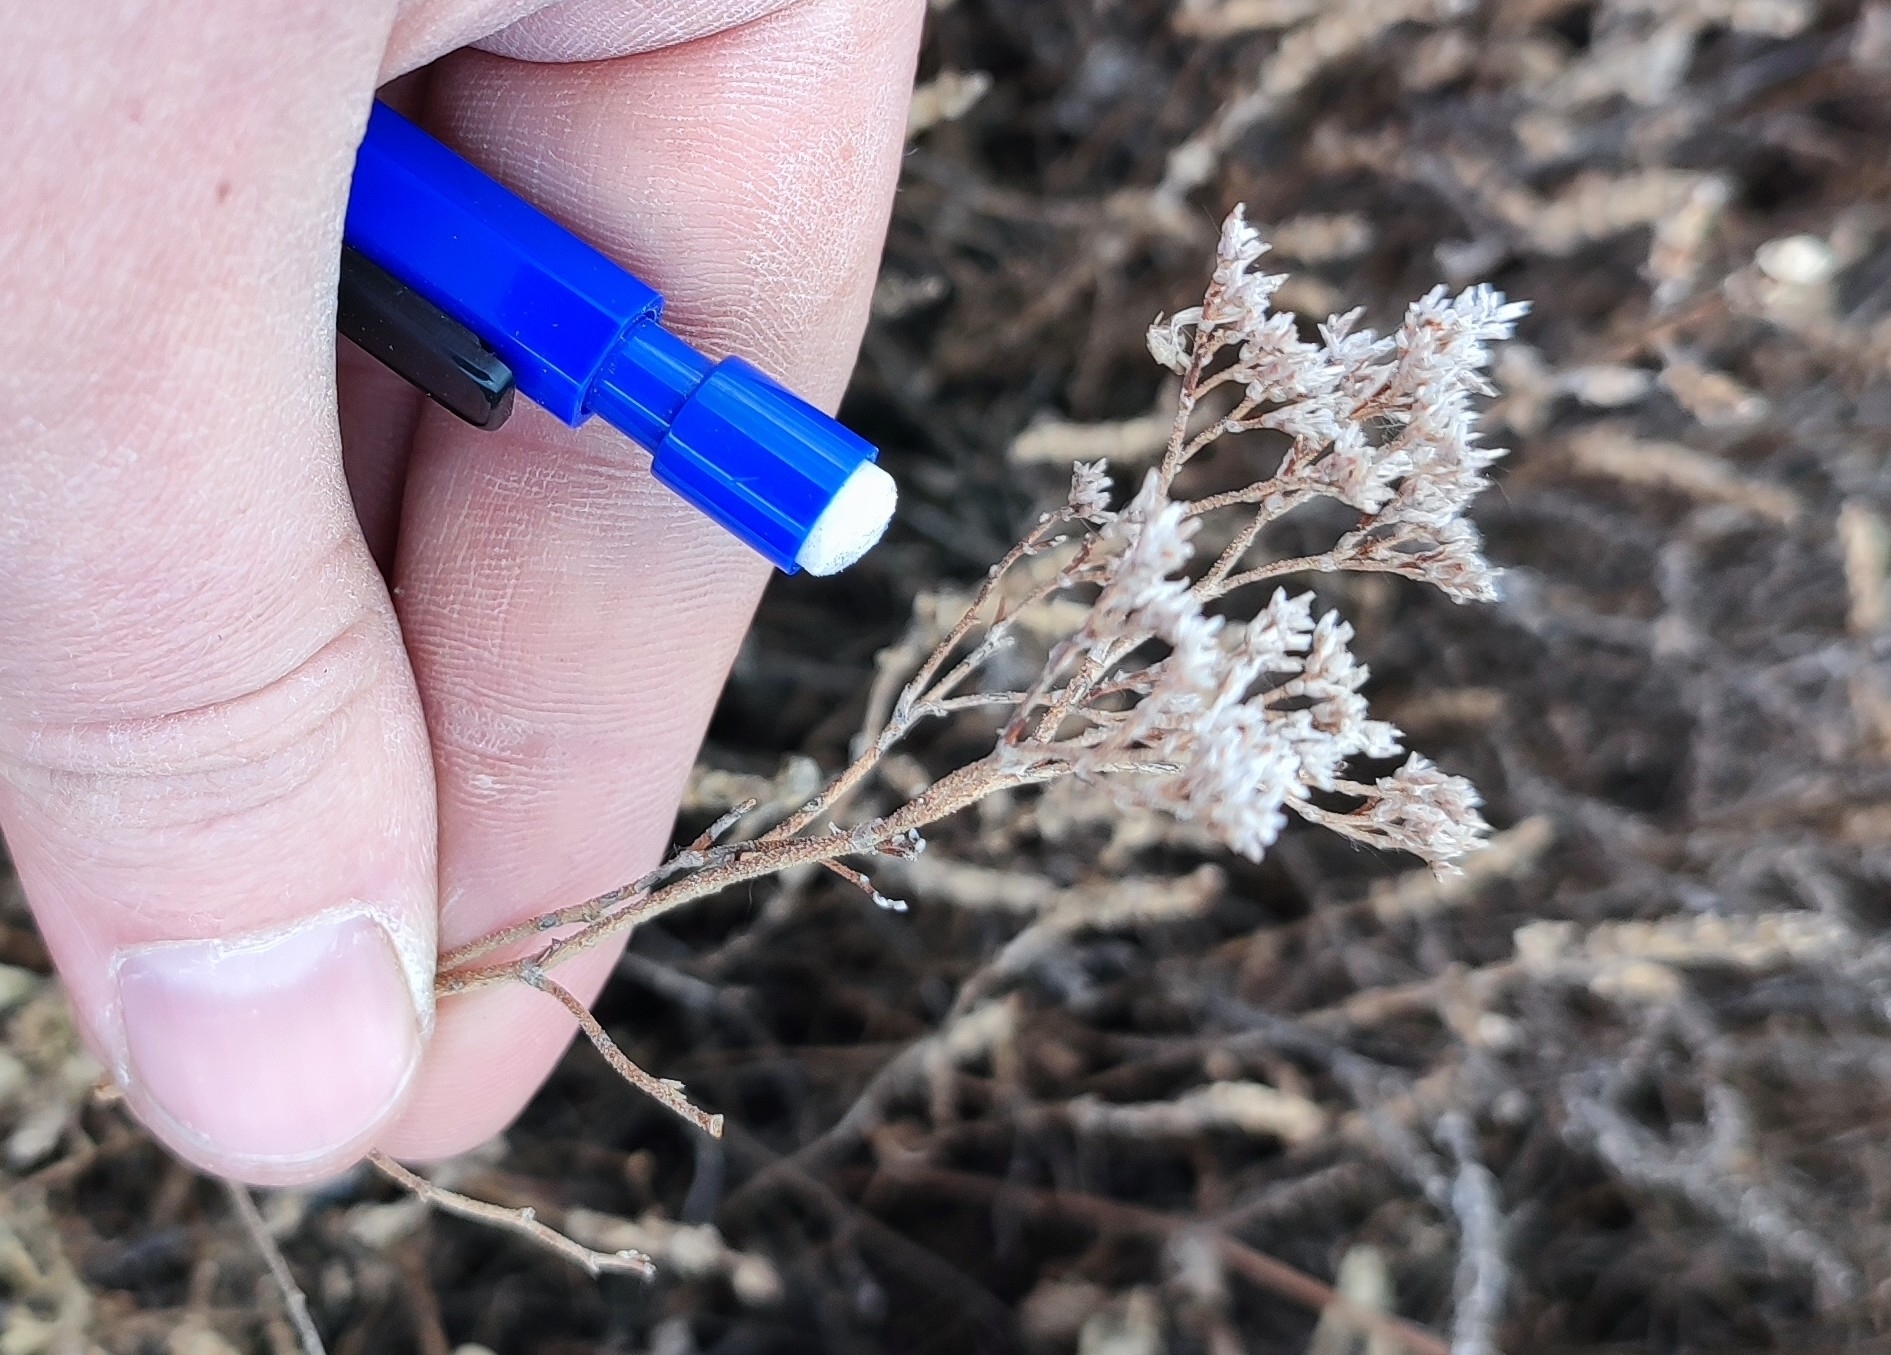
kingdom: Plantae
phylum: Tracheophyta
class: Magnoliopsida
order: Caryophyllales
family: Plumbaginaceae
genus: Limonium
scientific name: Limonium gmelini
